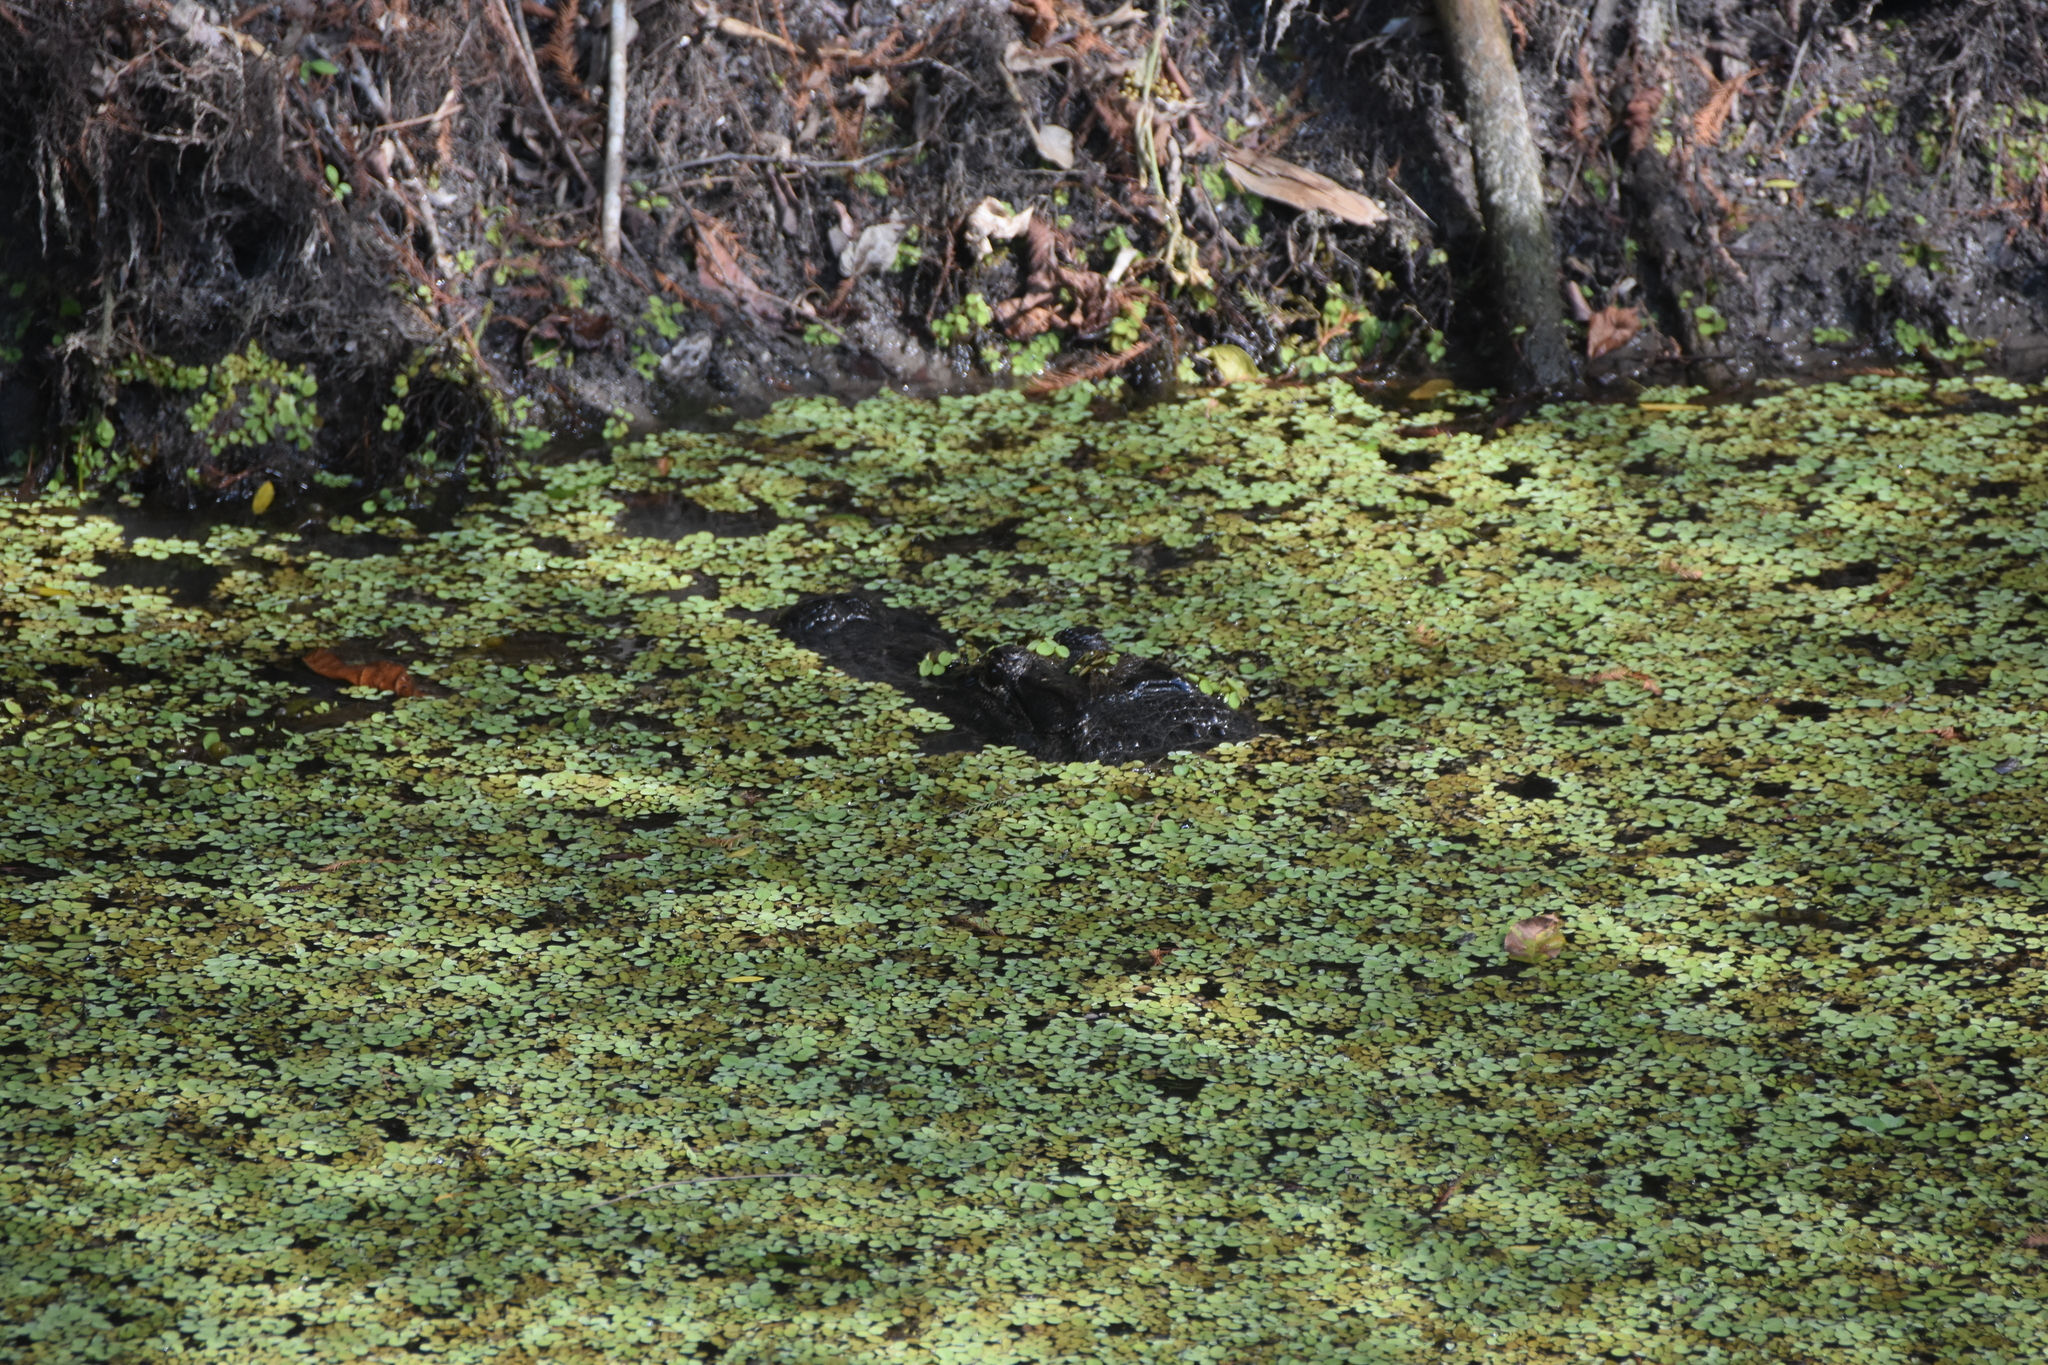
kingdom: Animalia
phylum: Chordata
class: Crocodylia
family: Alligatoridae
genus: Alligator
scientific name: Alligator mississippiensis
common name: American alligator
